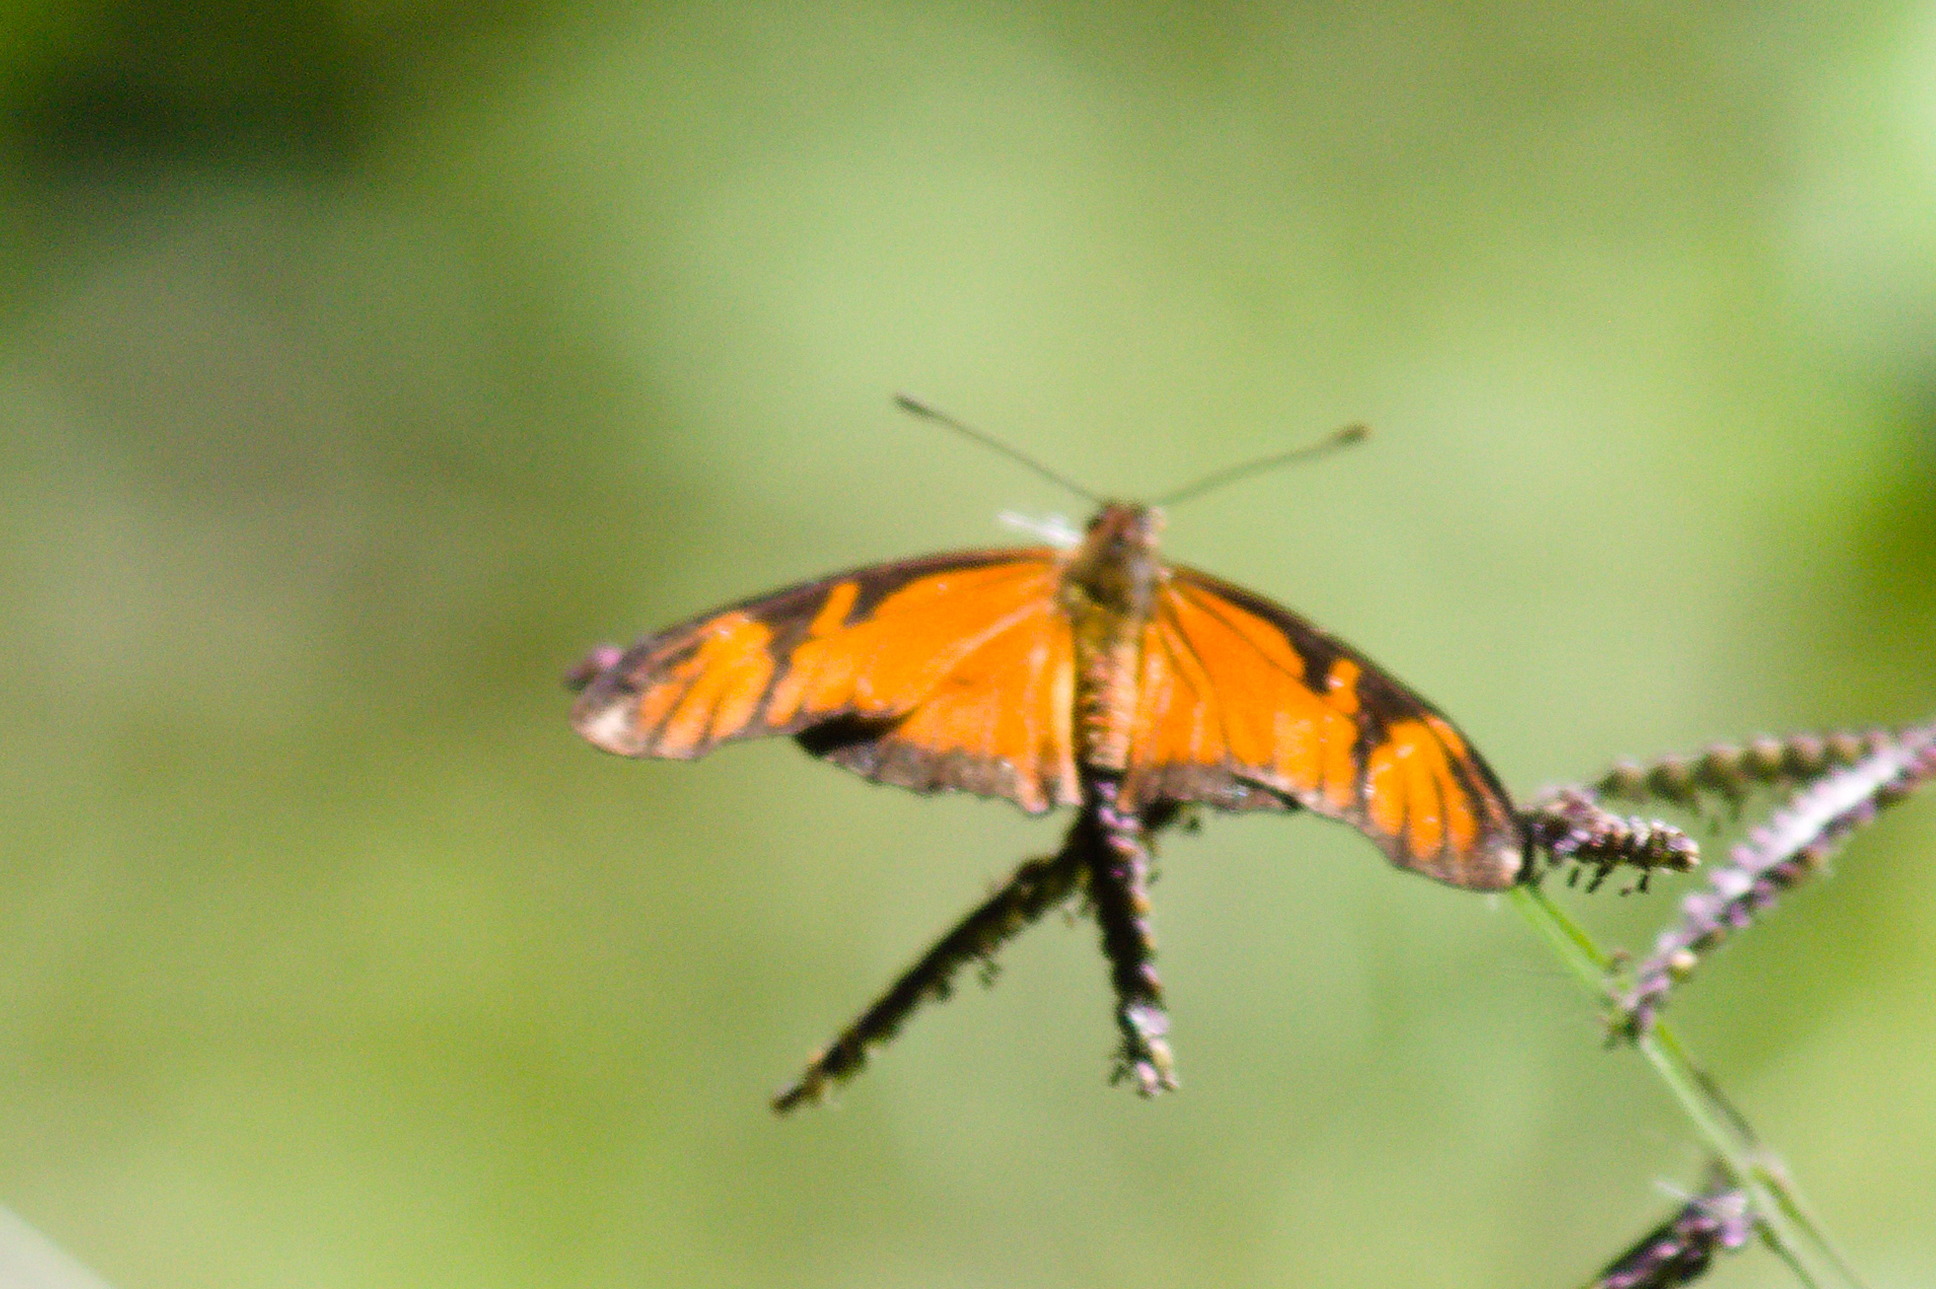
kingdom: Animalia
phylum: Arthropoda
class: Insecta
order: Lepidoptera
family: Nymphalidae
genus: Dione
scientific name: Dione juno
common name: Juno silverspot
